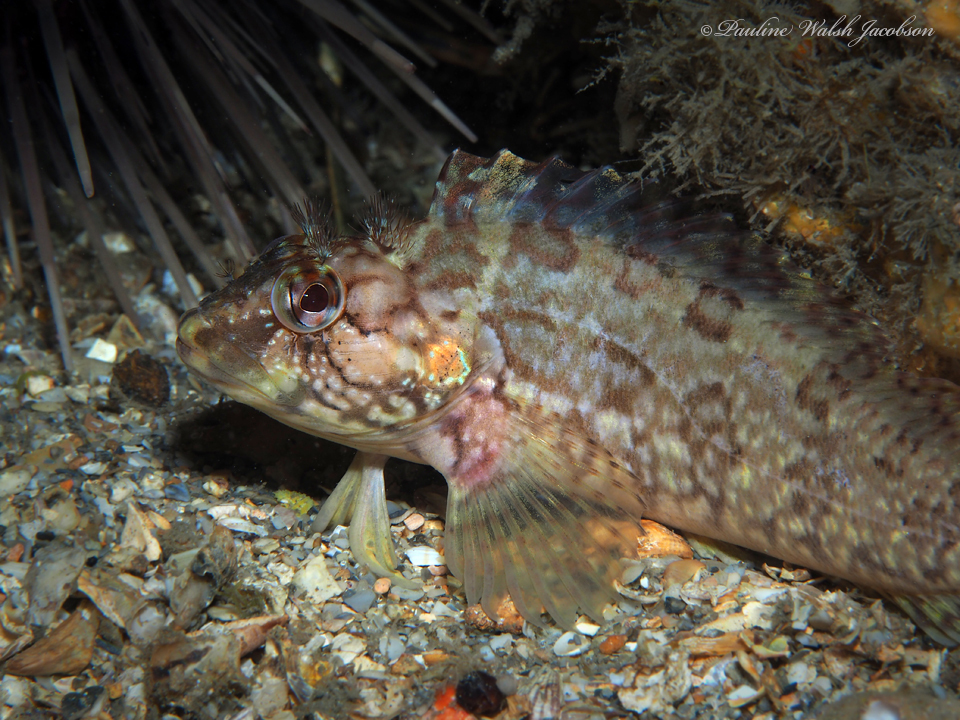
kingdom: Animalia
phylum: Chordata
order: Perciformes
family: Labrisomidae
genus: Labrisomus
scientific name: Labrisomus conditus
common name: Masquerader hairy blenny
